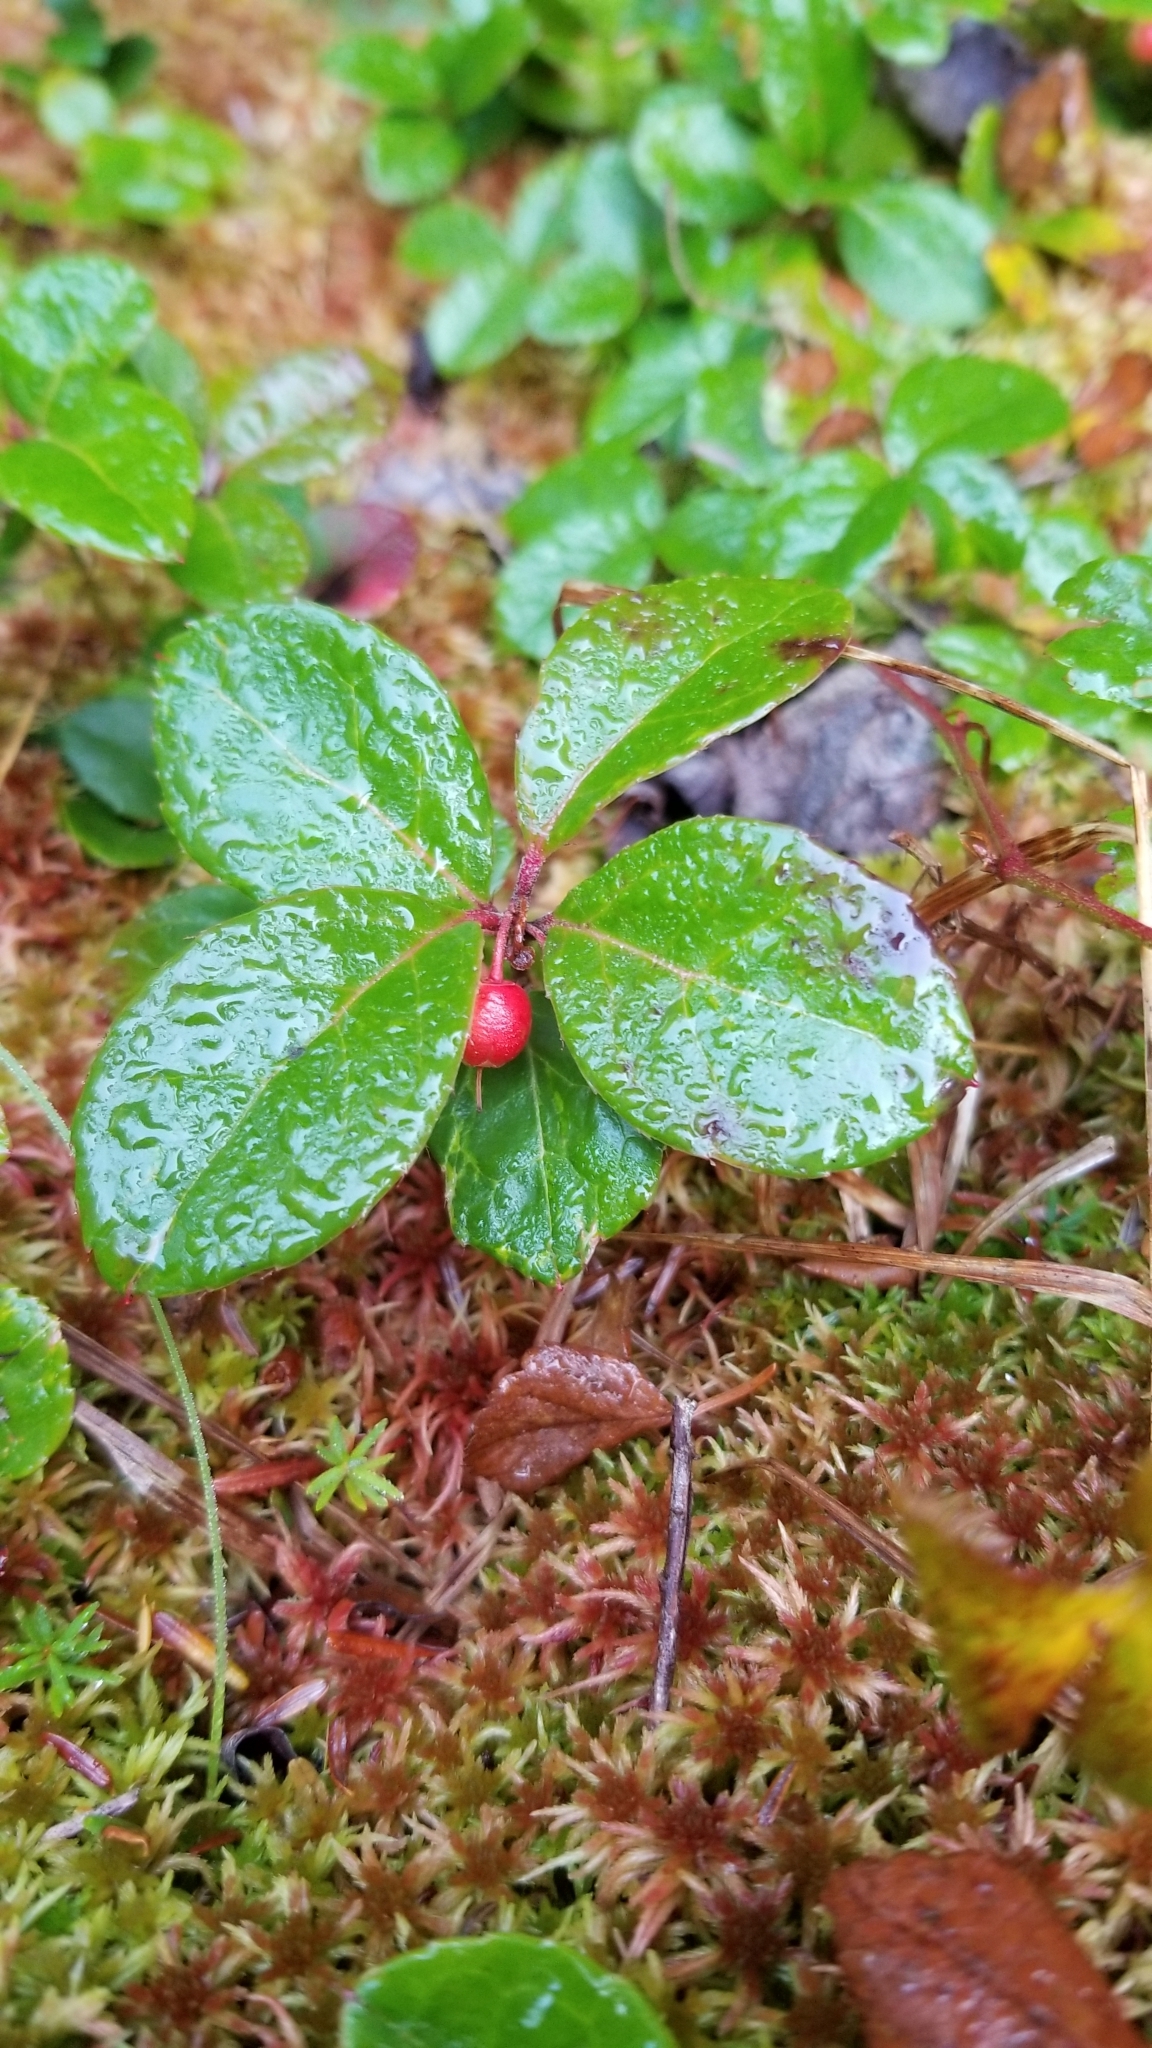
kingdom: Plantae
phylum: Tracheophyta
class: Magnoliopsida
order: Ericales
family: Ericaceae
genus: Gaultheria
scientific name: Gaultheria procumbens
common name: Checkerberry
